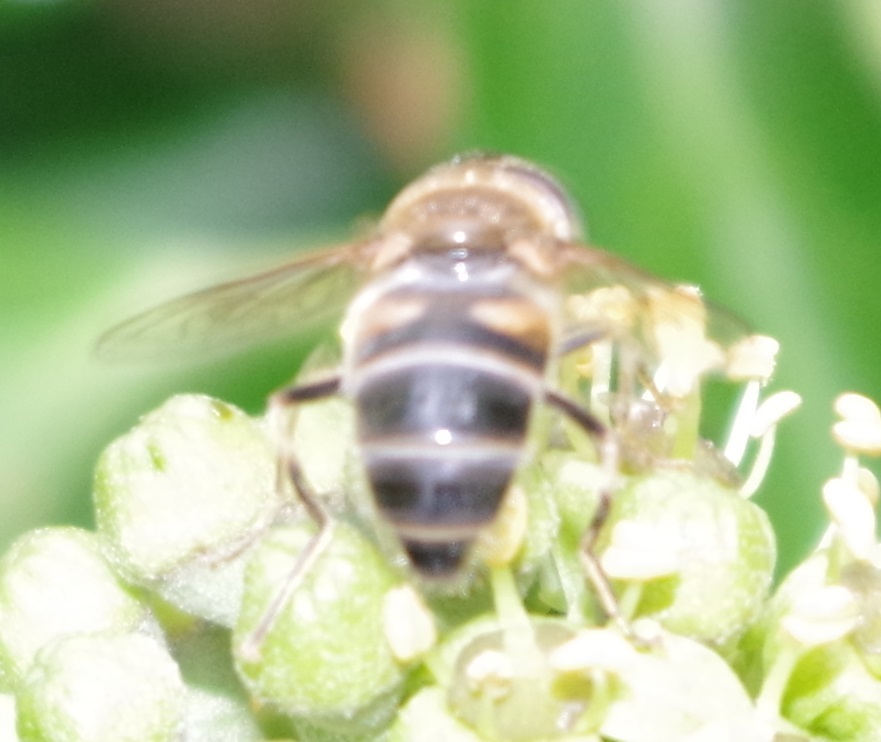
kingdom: Animalia
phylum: Arthropoda
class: Insecta
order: Diptera
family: Syrphidae
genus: Eristalis
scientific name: Eristalis pertinax
